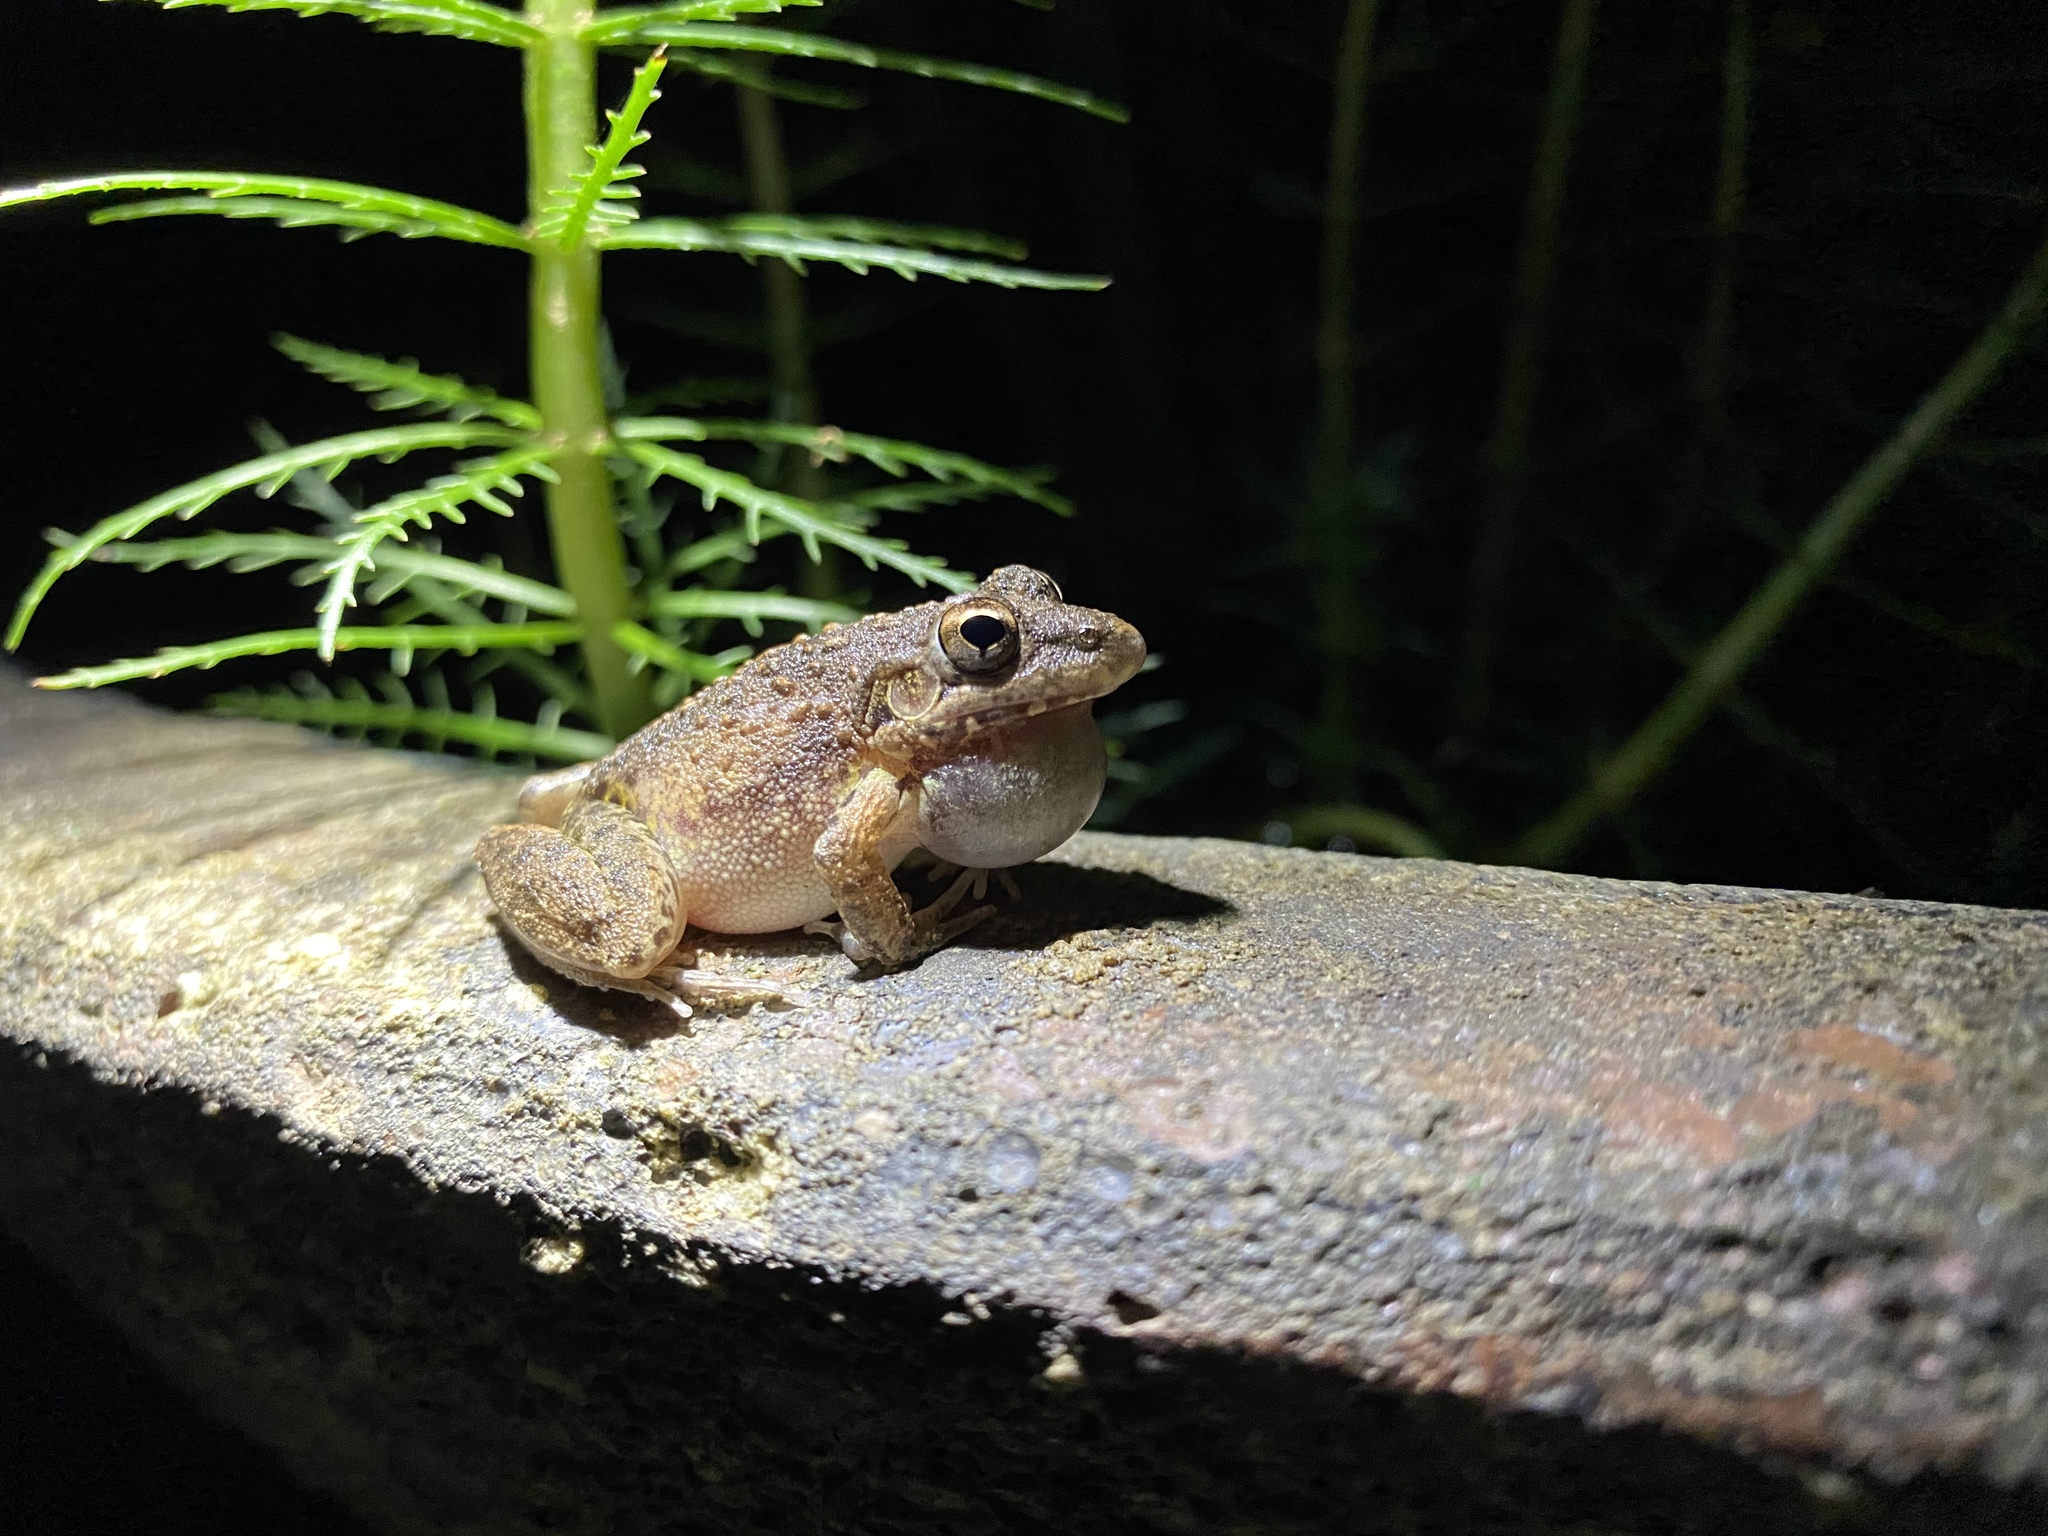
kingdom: Animalia
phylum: Chordata
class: Amphibia
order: Anura
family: Pelodryadidae
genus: Litoria
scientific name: Litoria inermis
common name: Bumpy rocket frog
